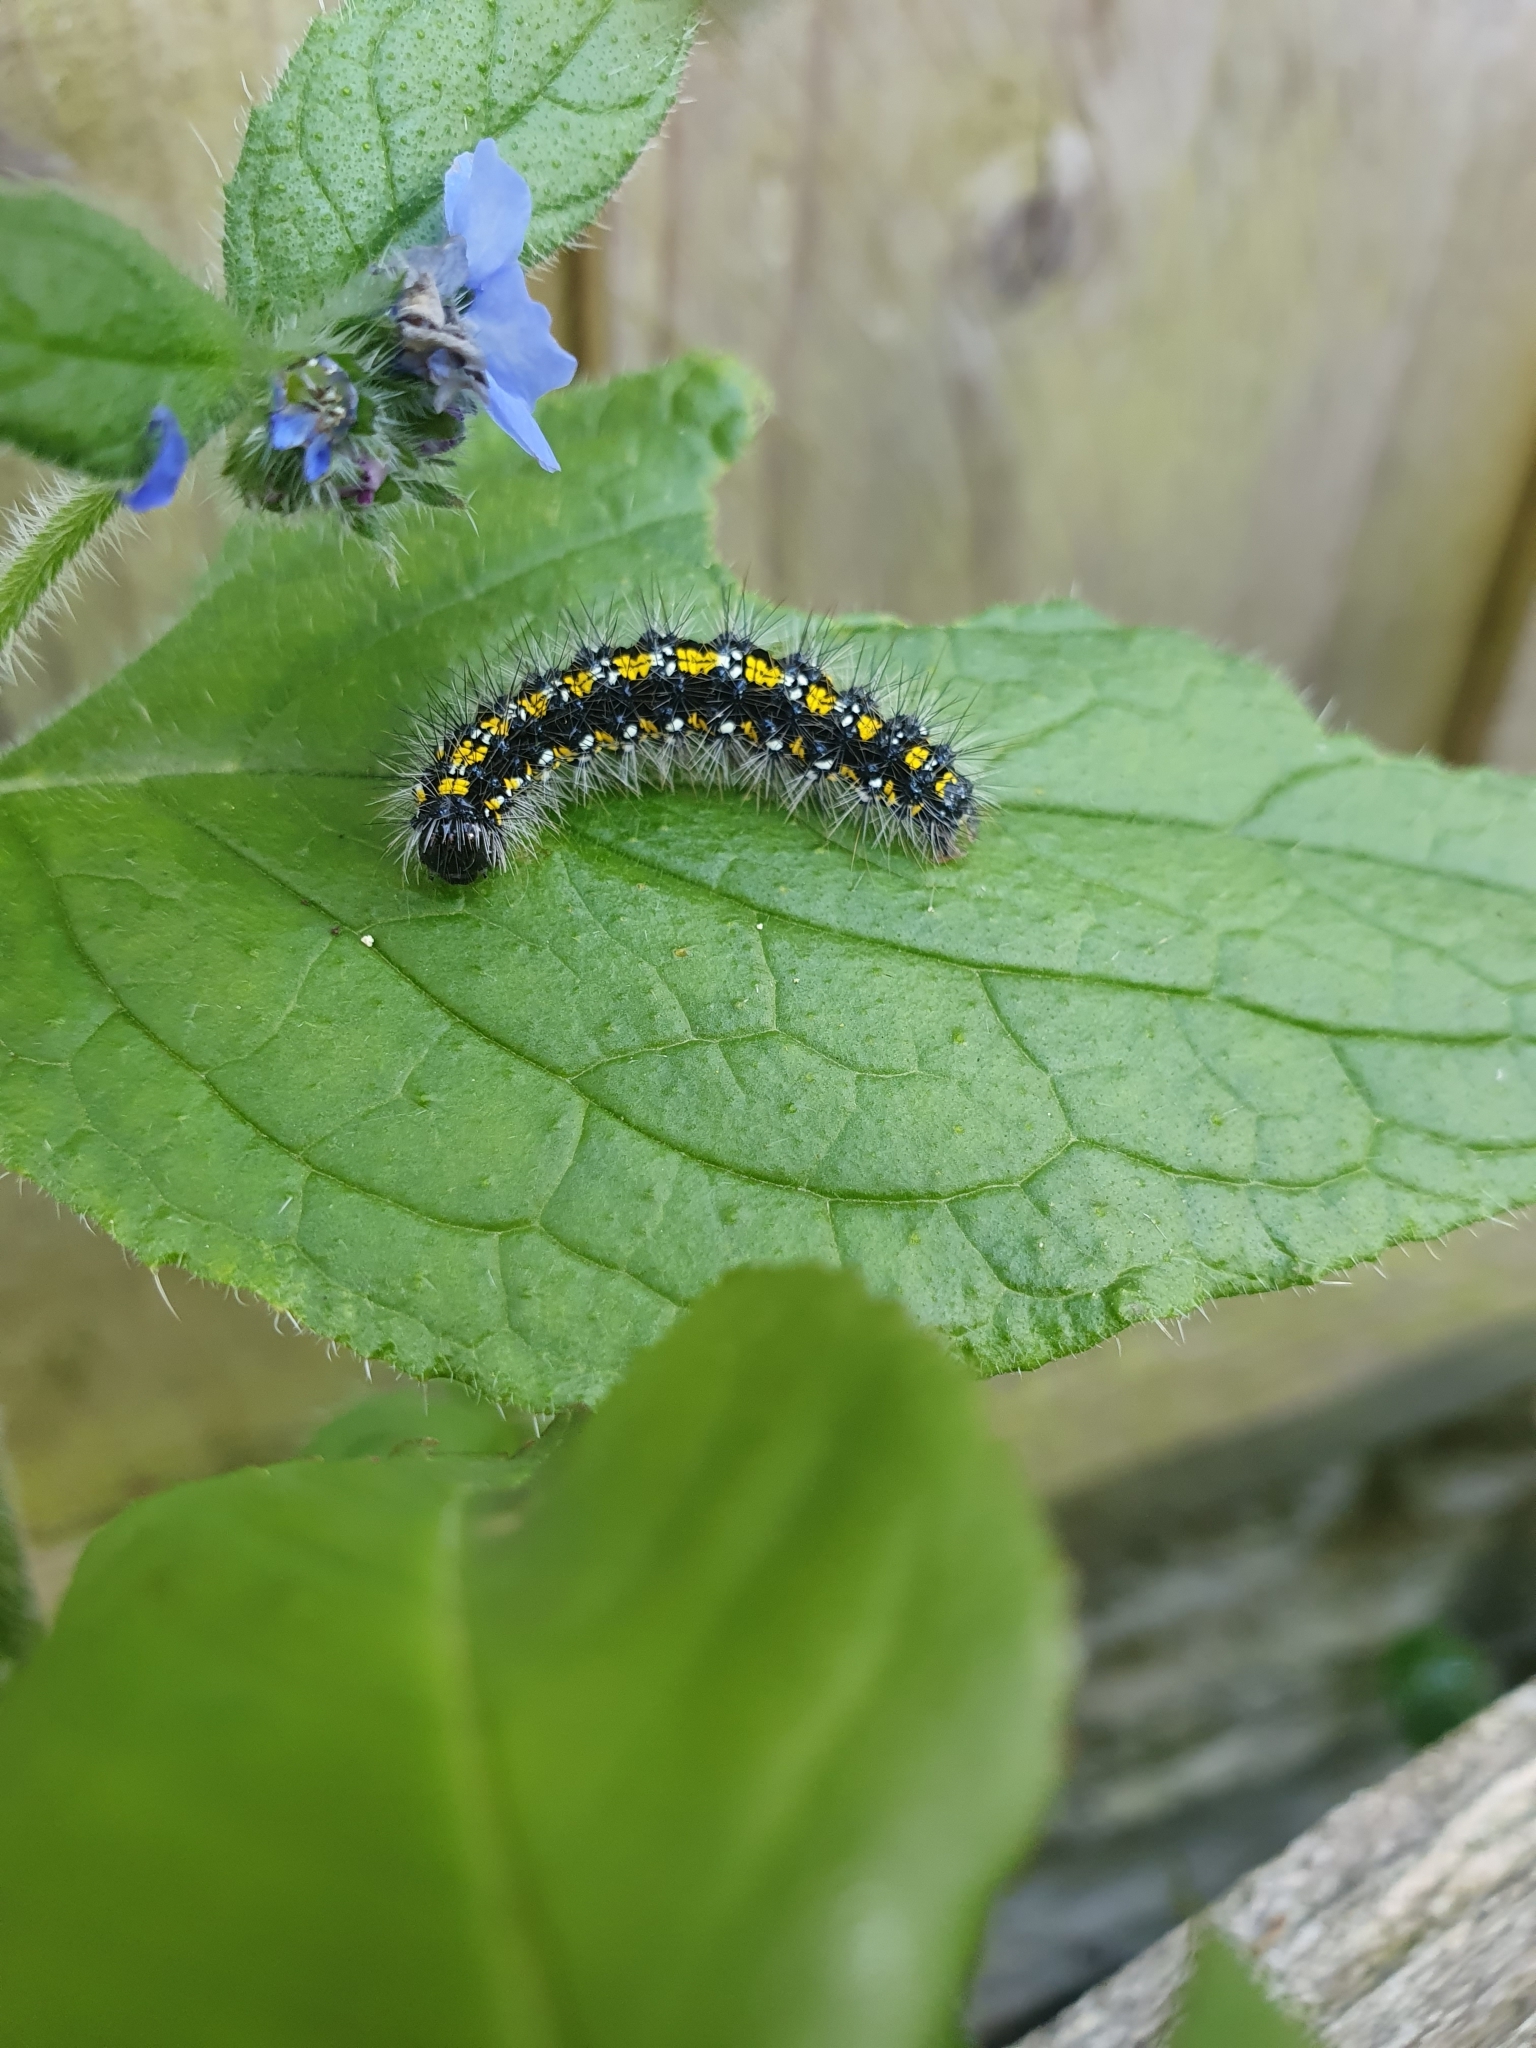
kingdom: Animalia
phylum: Arthropoda
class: Insecta
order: Lepidoptera
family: Erebidae
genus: Callimorpha
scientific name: Callimorpha dominula
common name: Scarlet tiger
